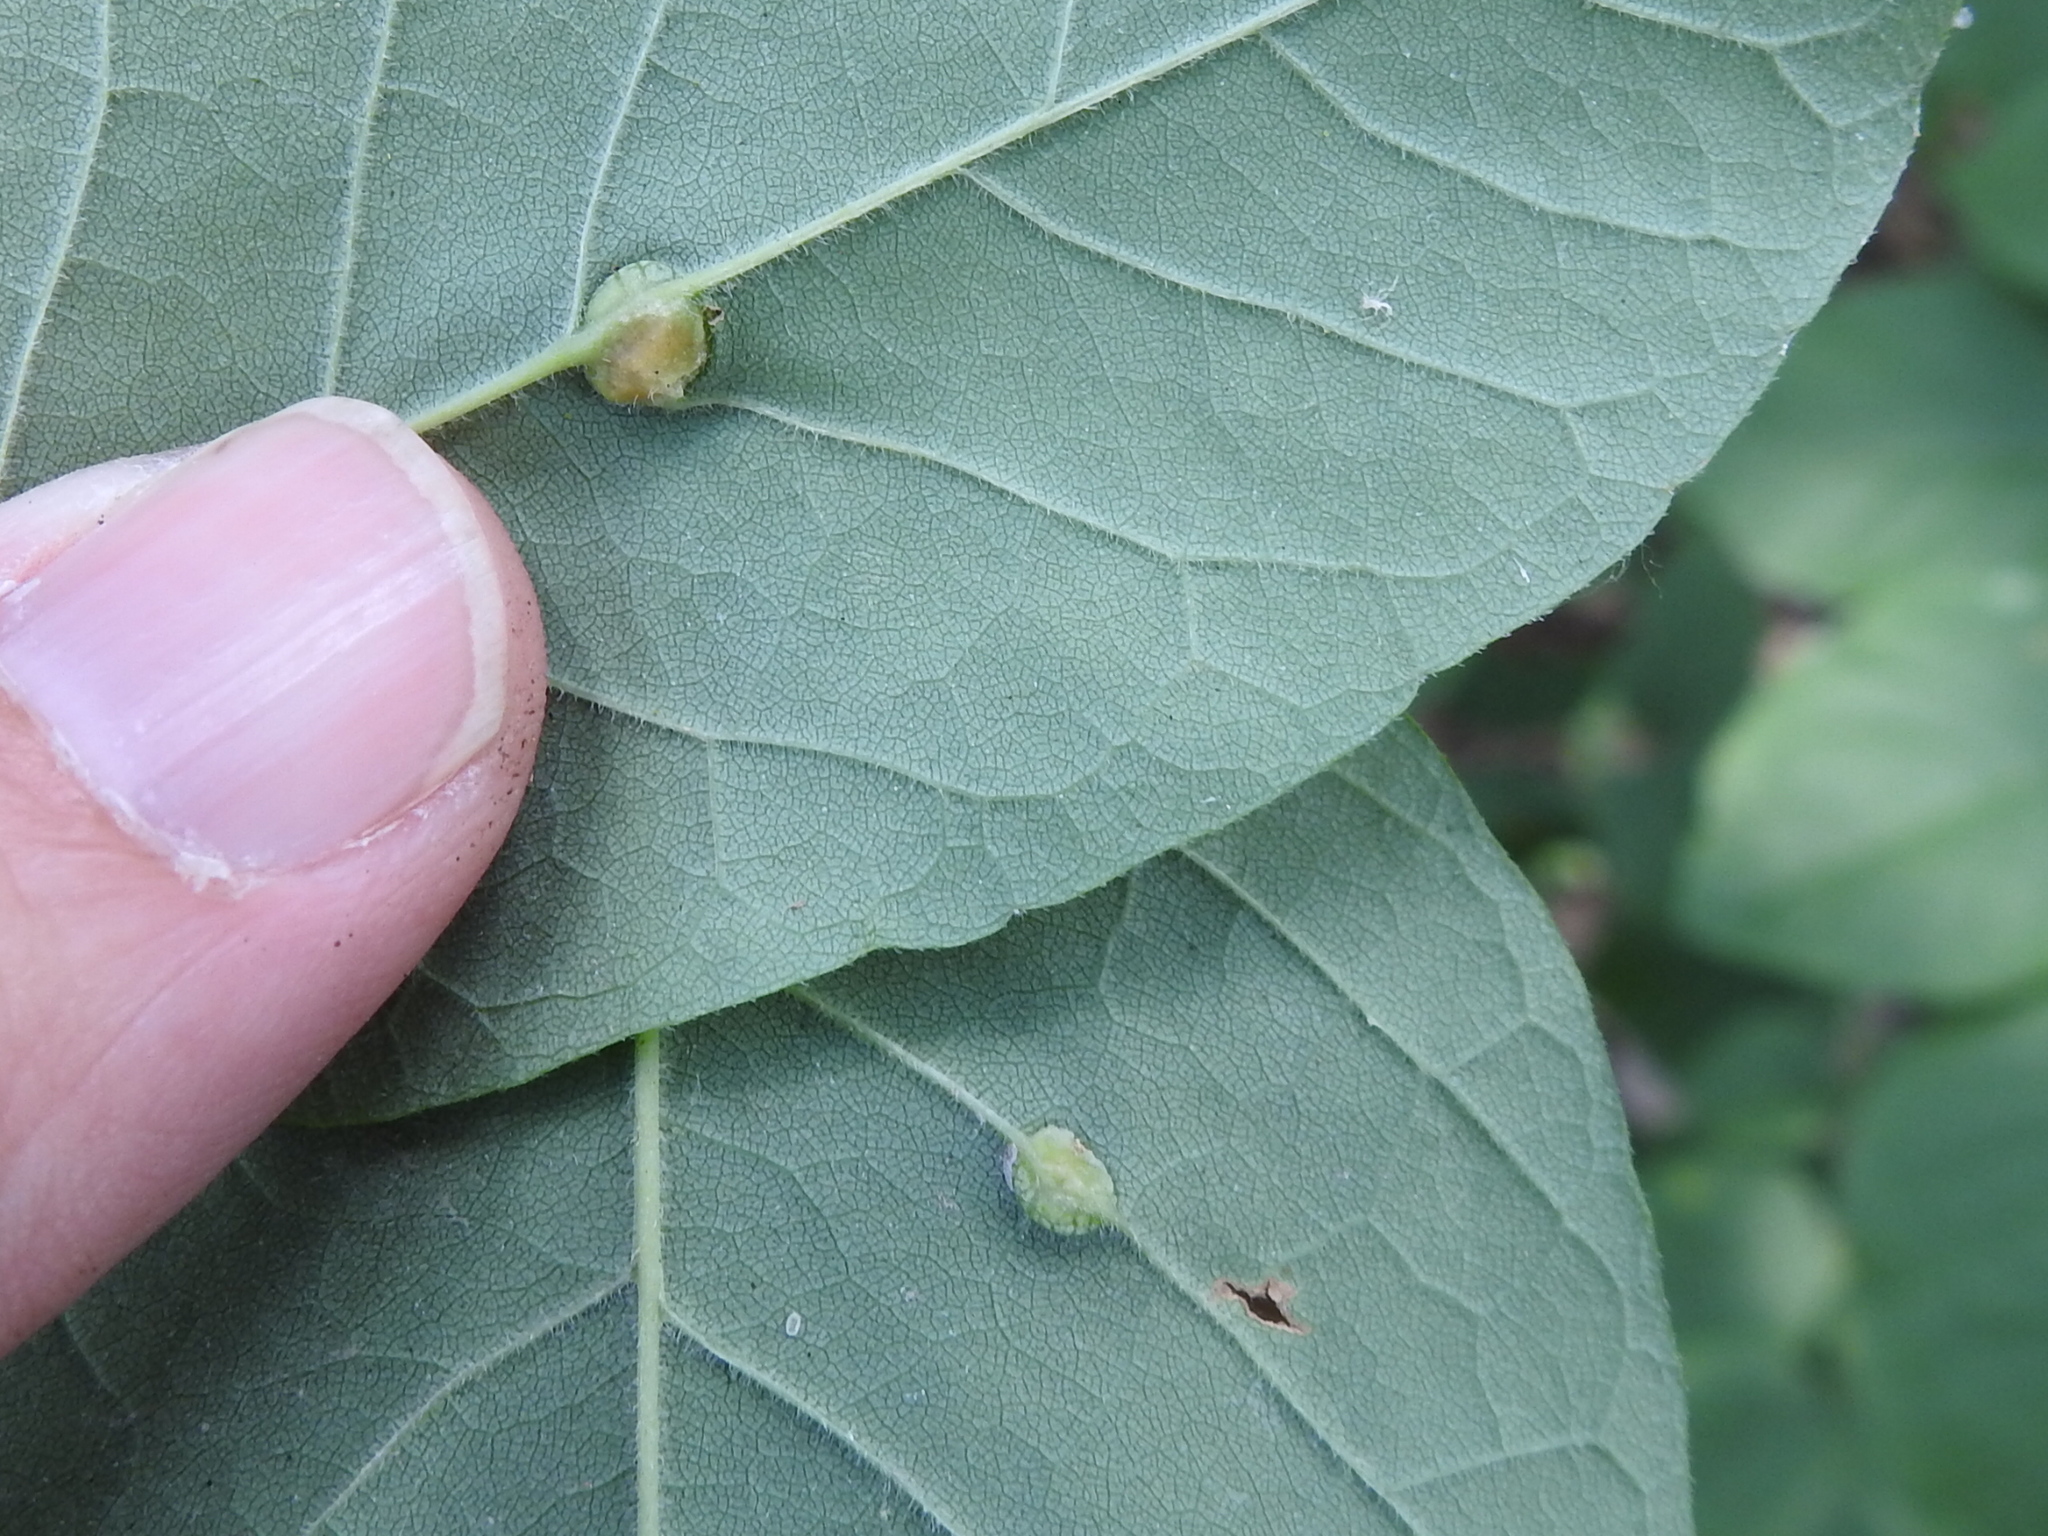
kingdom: Animalia
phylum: Arthropoda
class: Insecta
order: Diptera
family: Cecidomyiidae
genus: Dasineura
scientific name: Dasineura pellex
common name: Ash bullet gall midge
